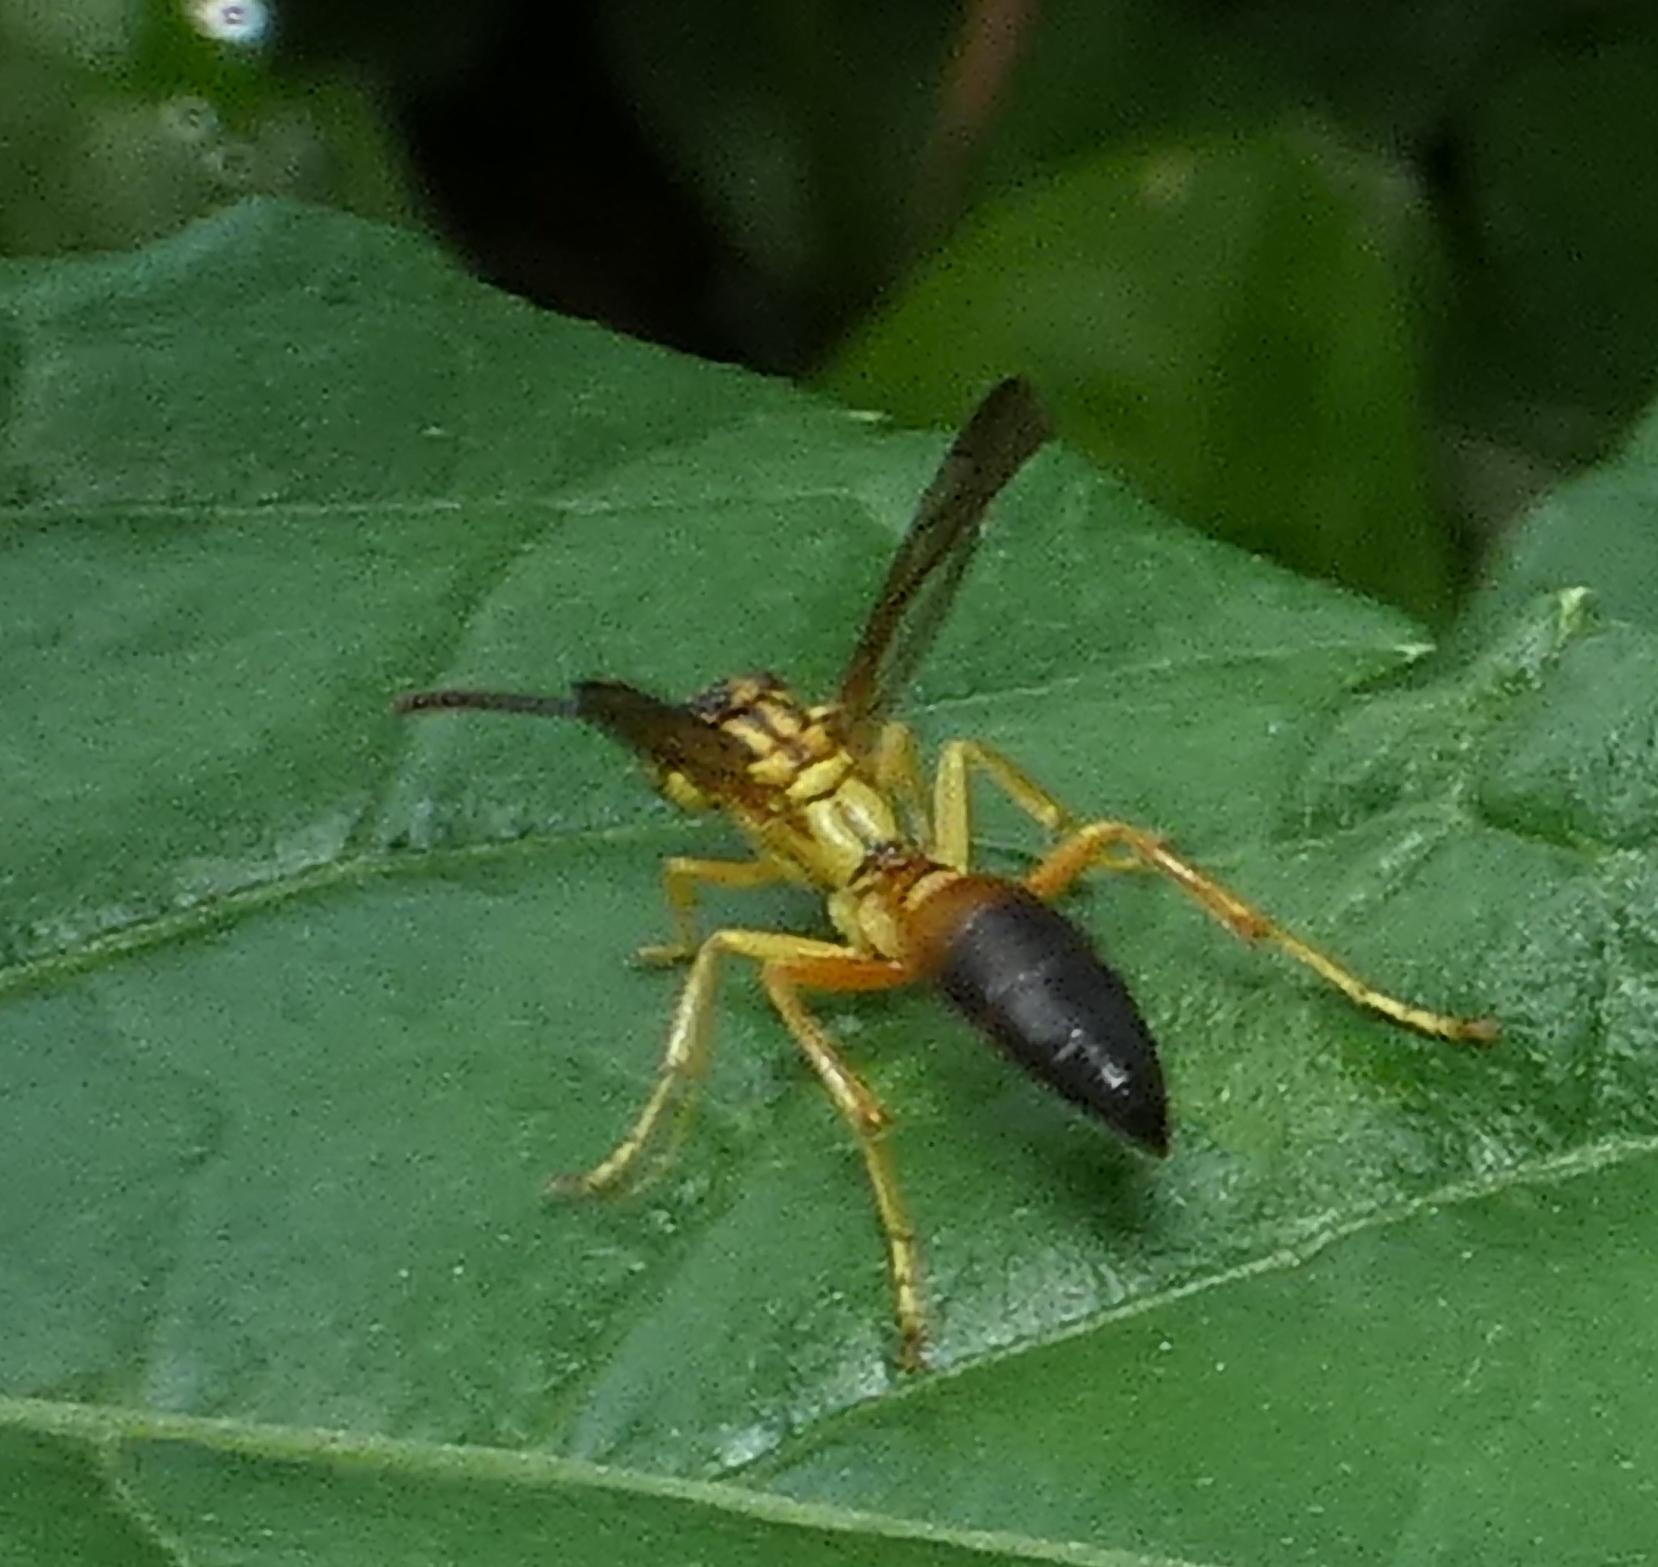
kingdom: Animalia
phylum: Arthropoda
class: Insecta
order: Hymenoptera
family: Vespidae
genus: Agelaia
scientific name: Agelaia pallipes
